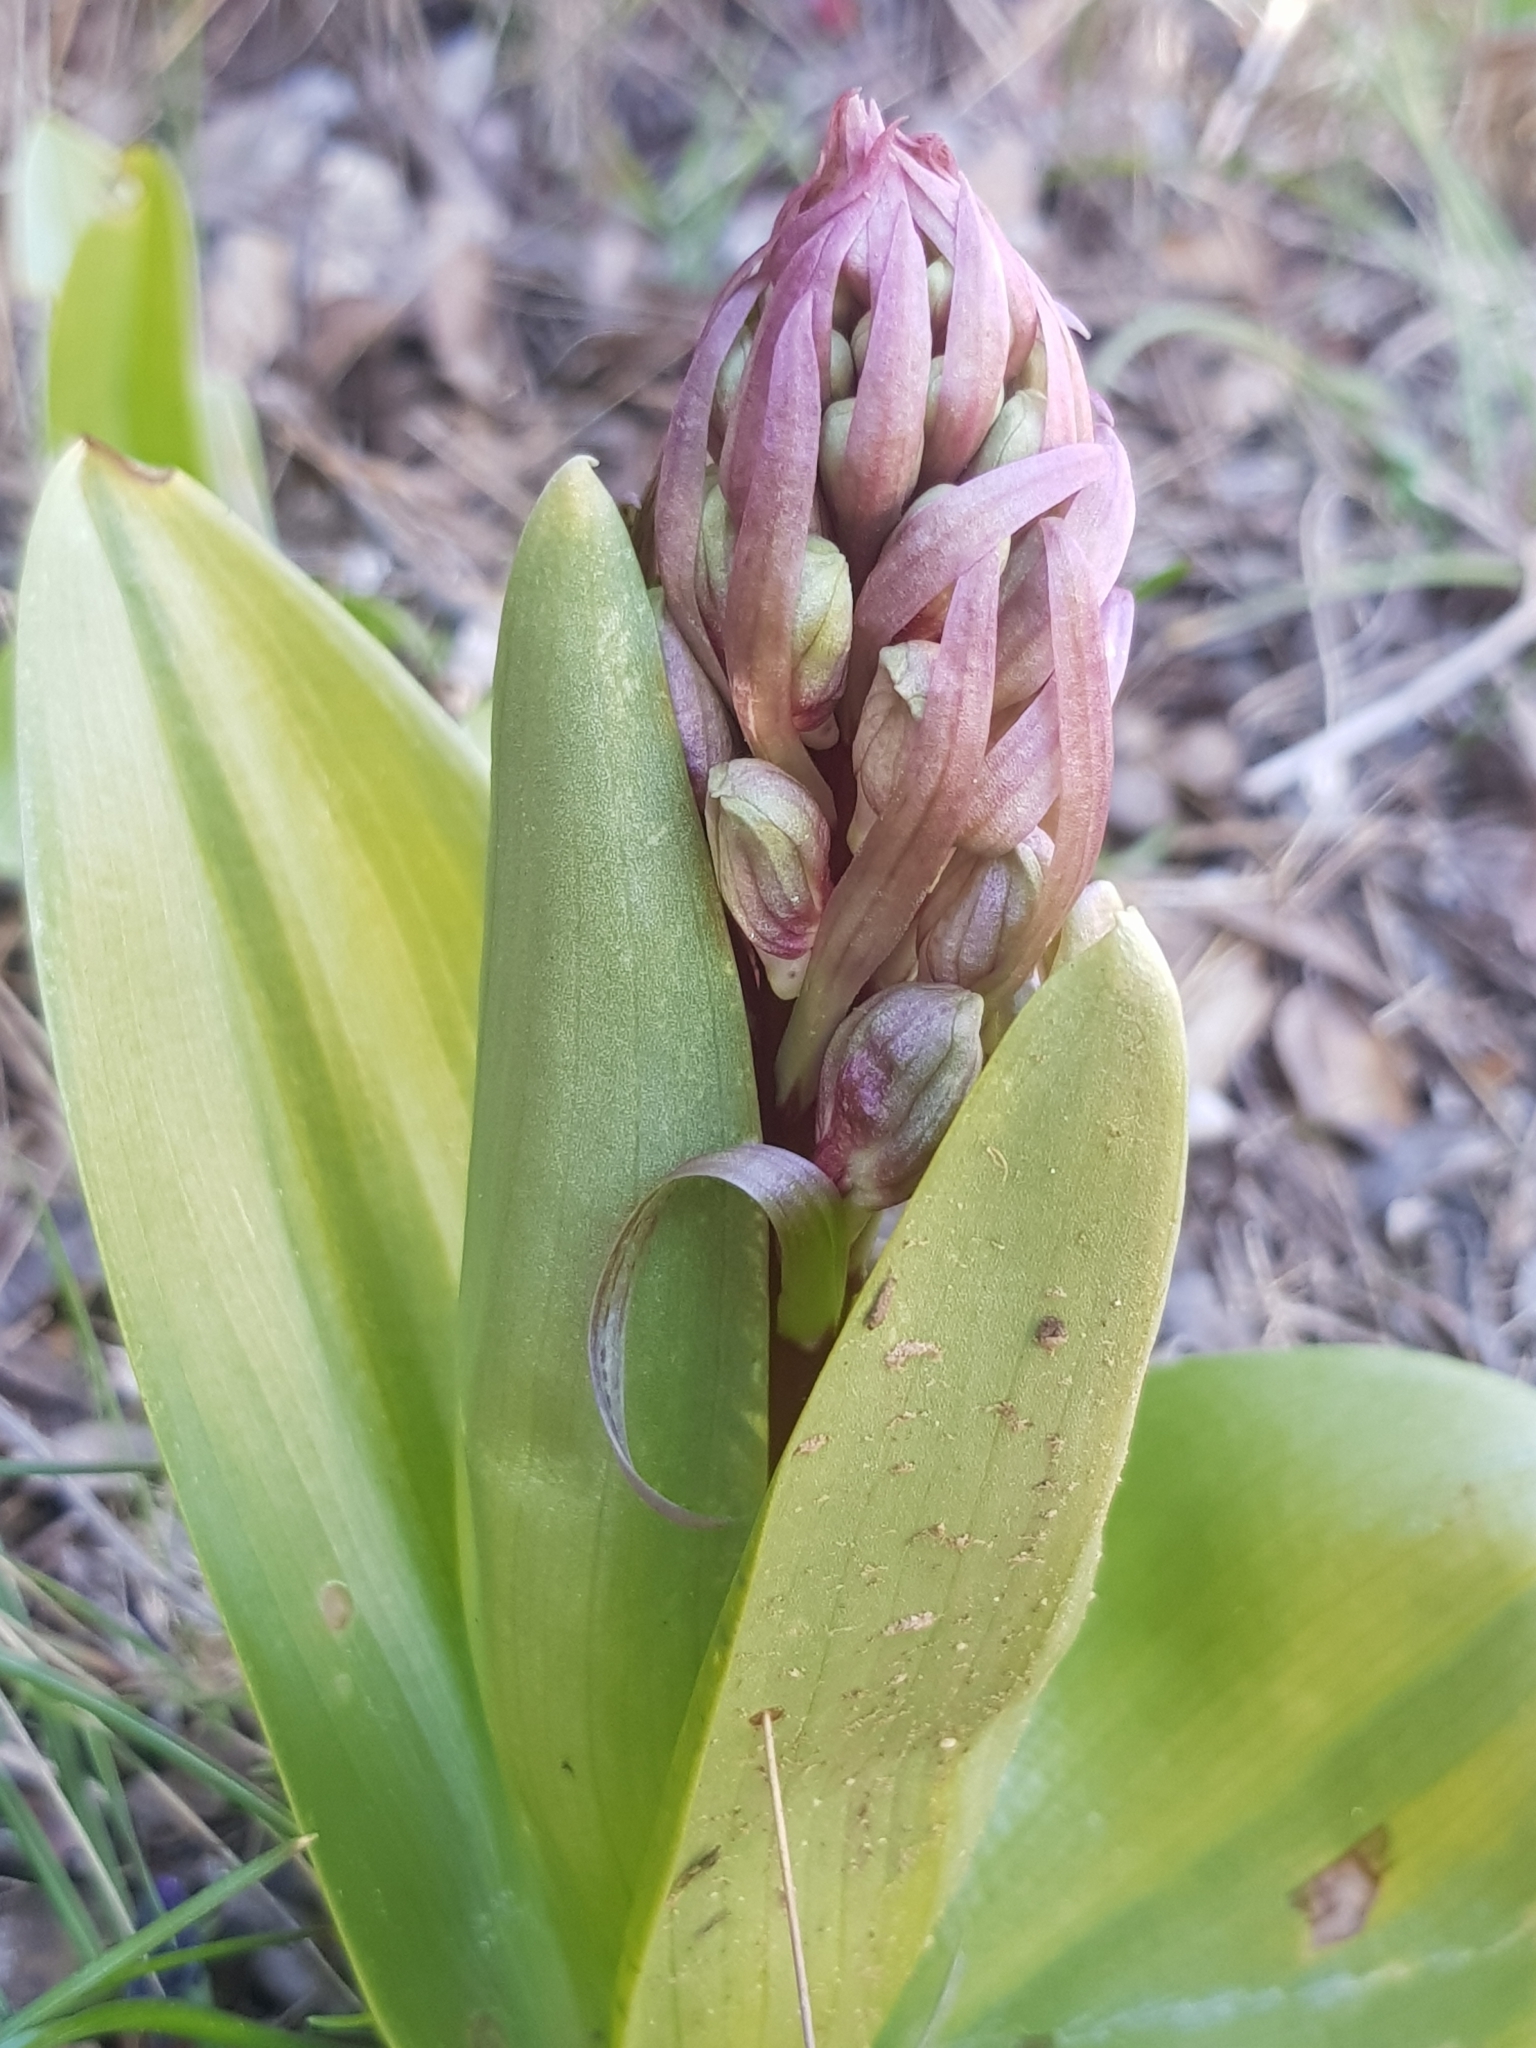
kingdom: Plantae
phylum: Tracheophyta
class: Liliopsida
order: Asparagales
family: Orchidaceae
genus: Himantoglossum
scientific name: Himantoglossum robertianum
